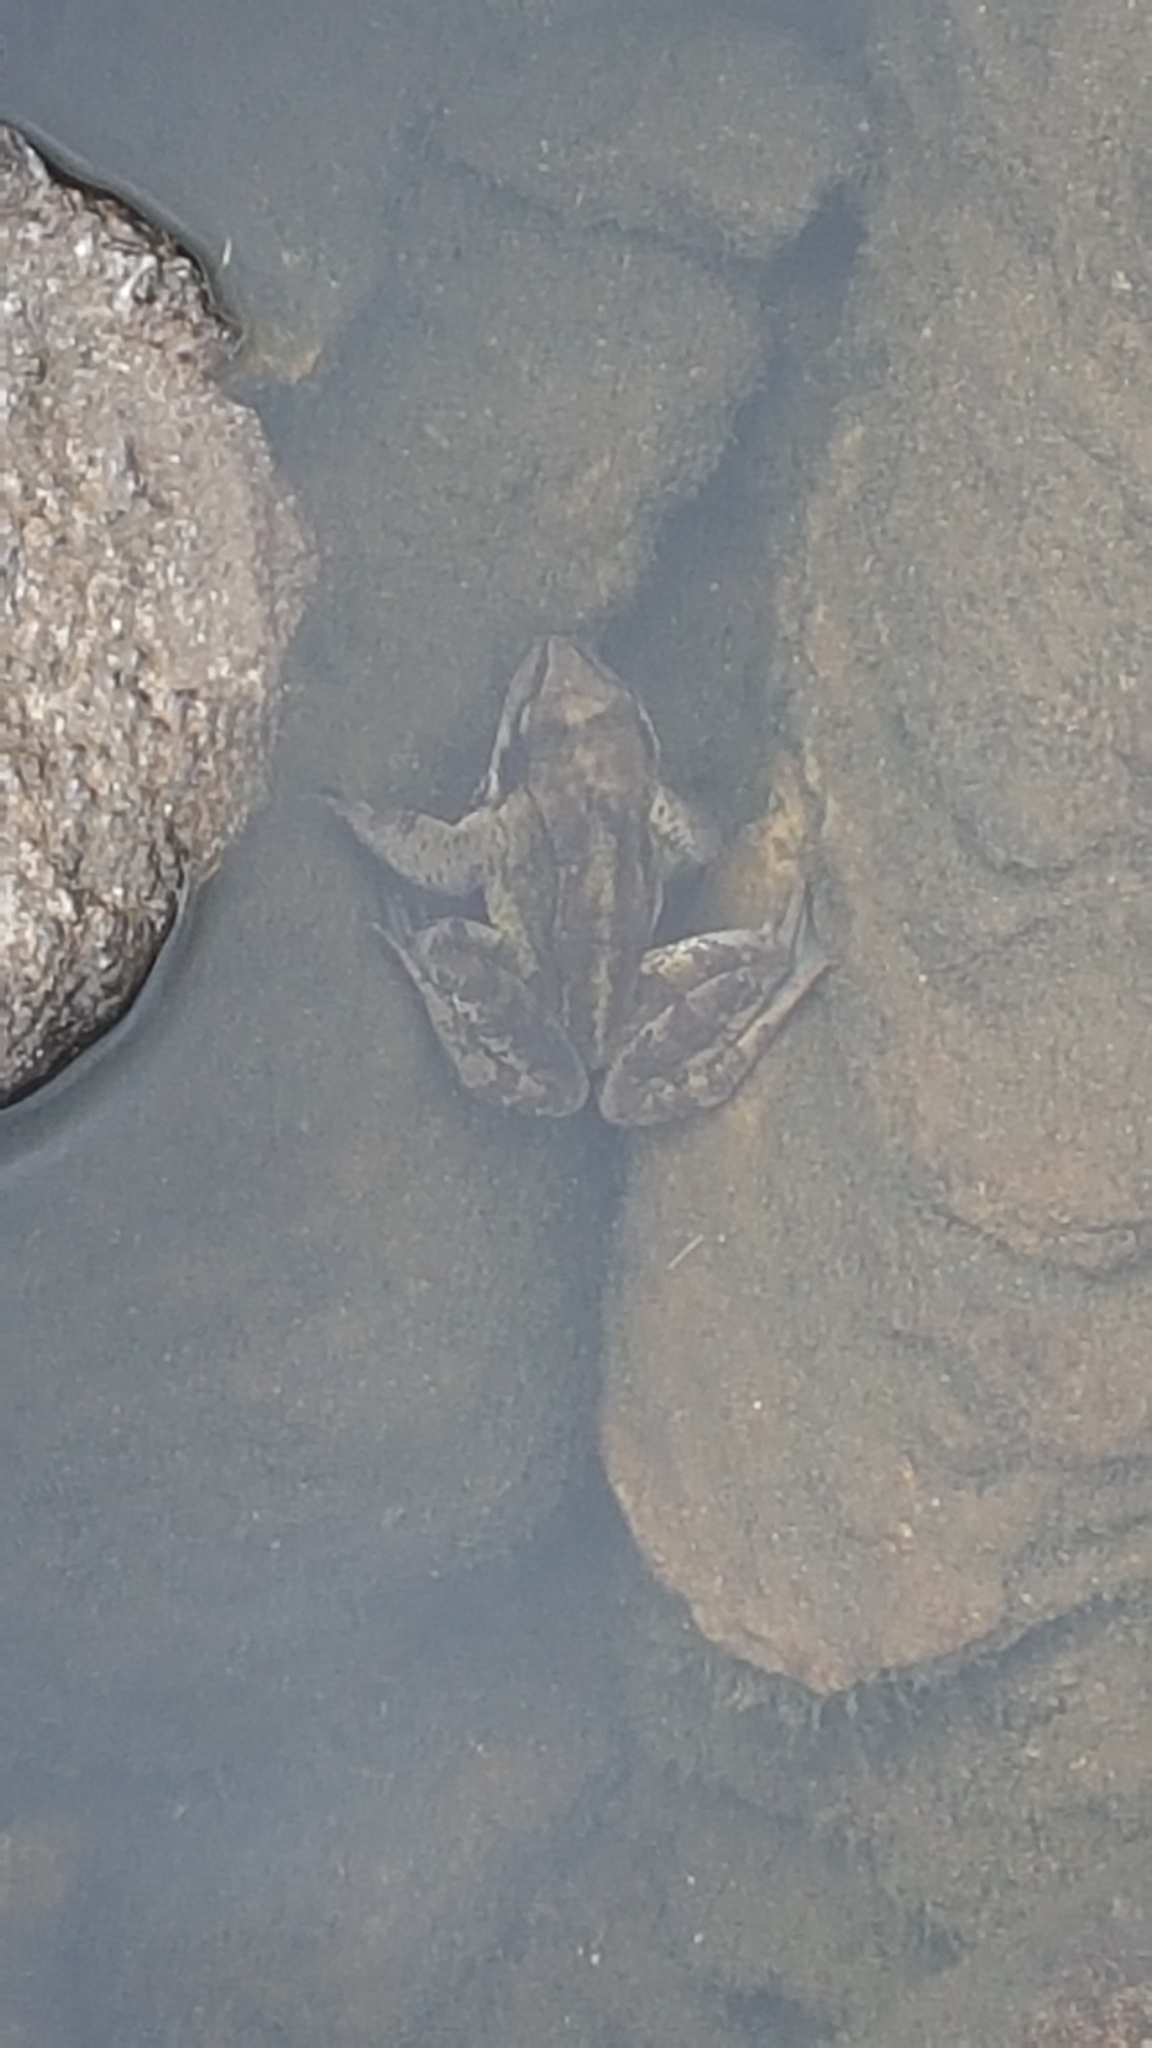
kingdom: Animalia
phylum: Chordata
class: Amphibia
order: Anura
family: Ranidae
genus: Rana
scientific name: Rana temporaria
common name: Common frog
